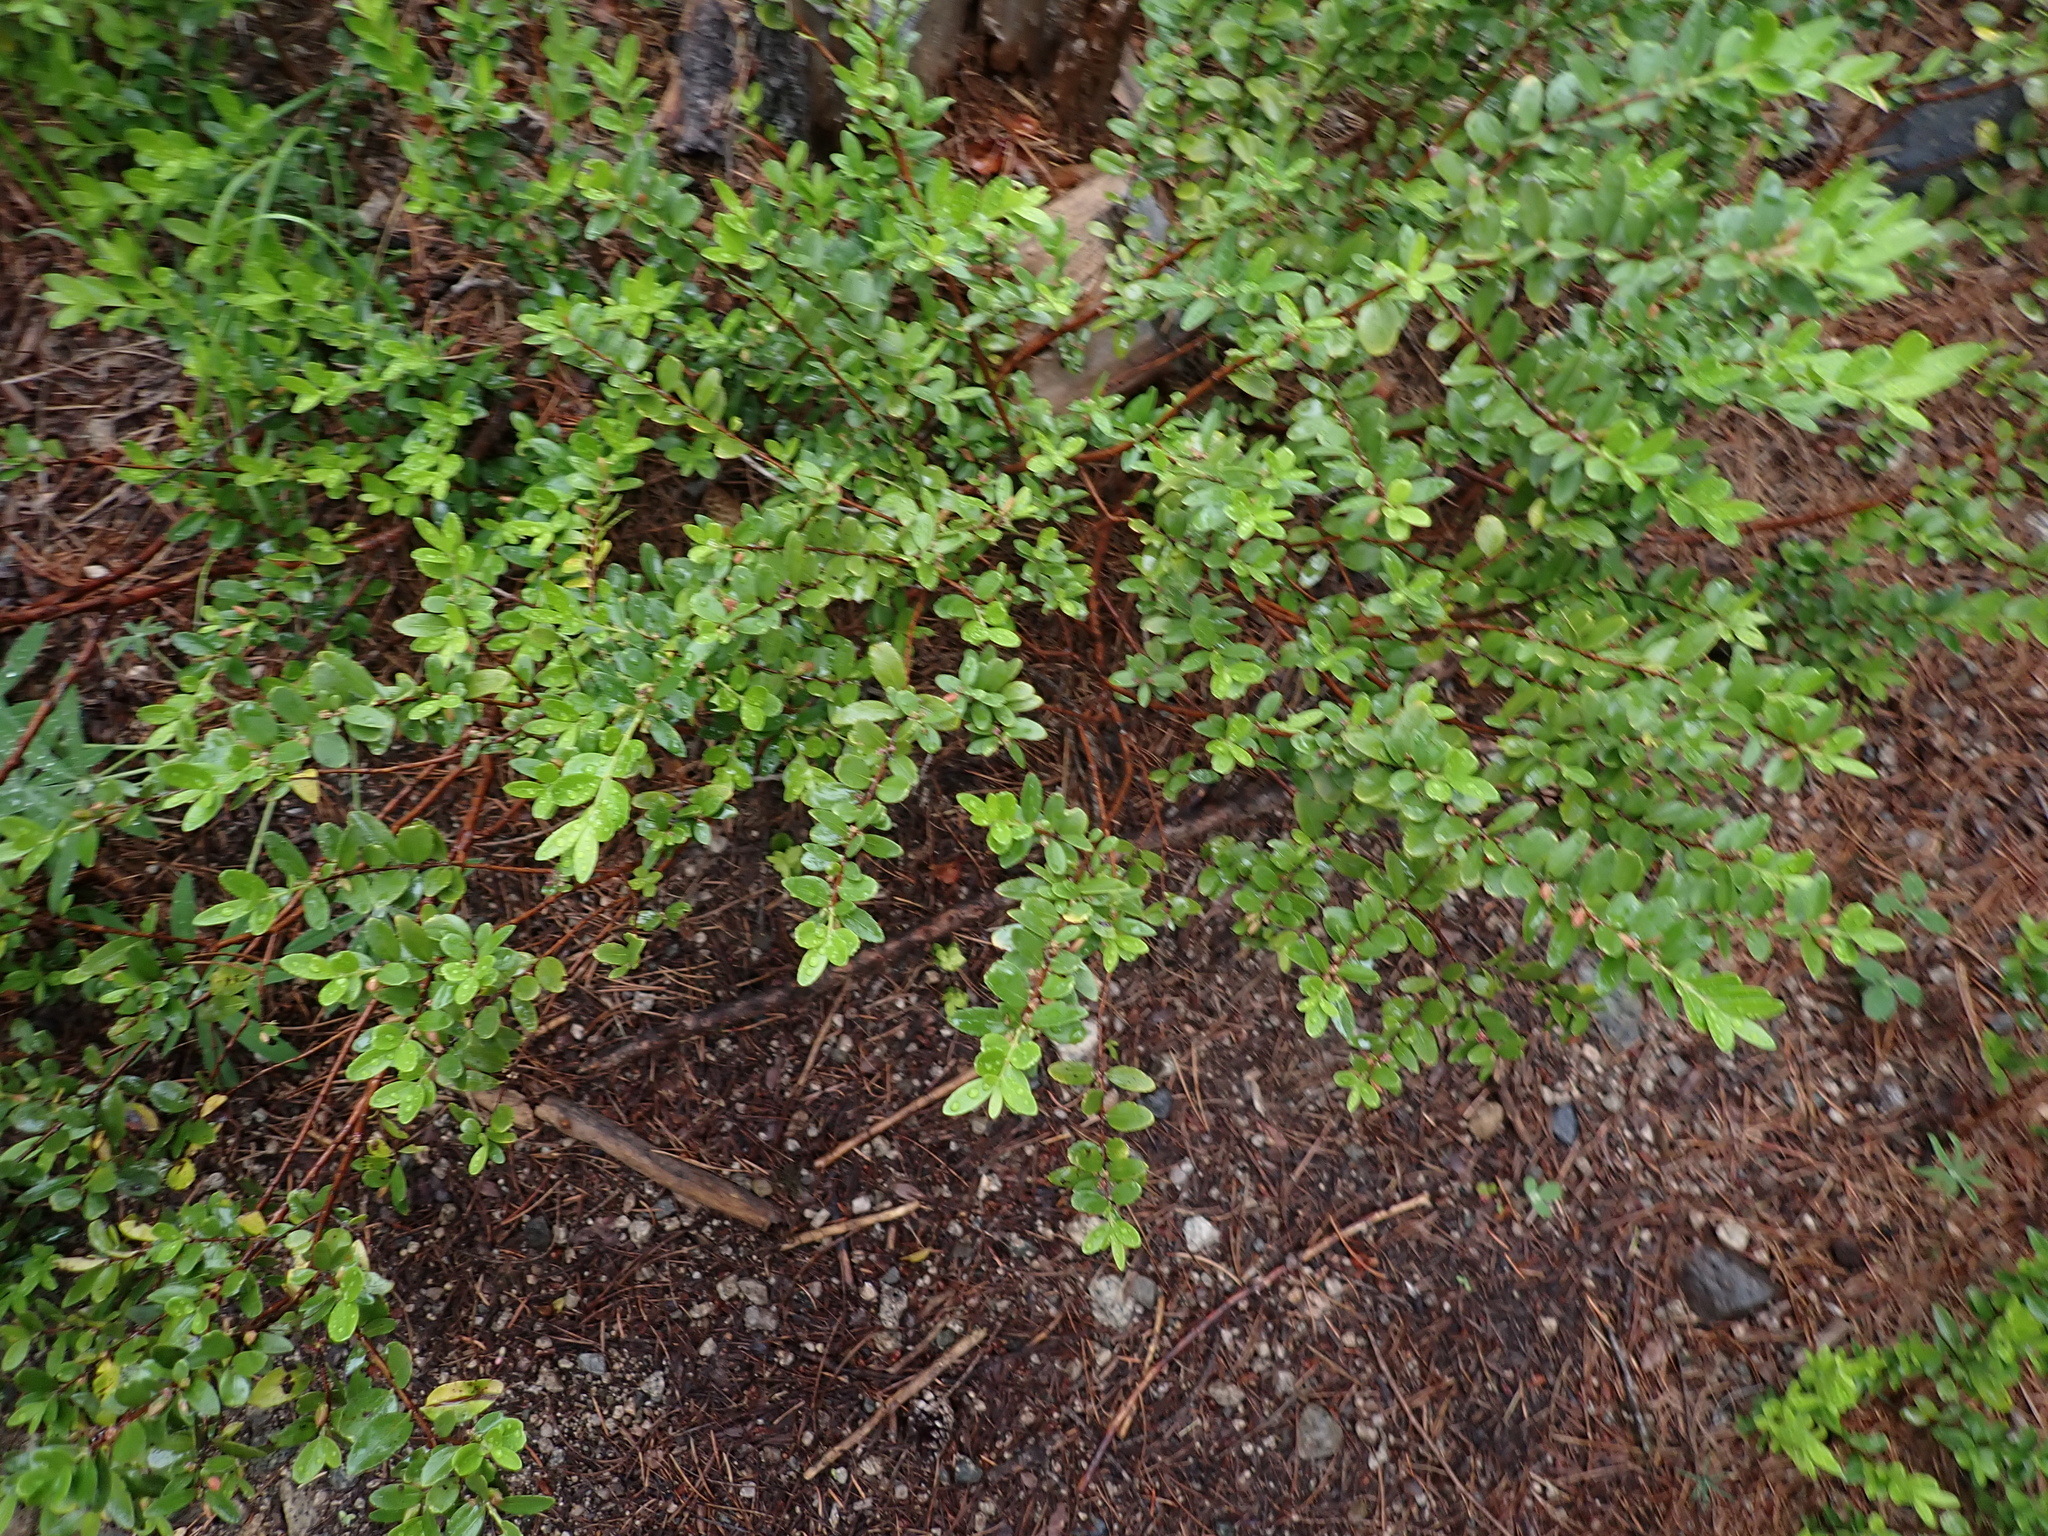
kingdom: Plantae
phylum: Tracheophyta
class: Magnoliopsida
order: Celastrales
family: Celastraceae
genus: Paxistima
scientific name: Paxistima myrsinites
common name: Mountain-lover
